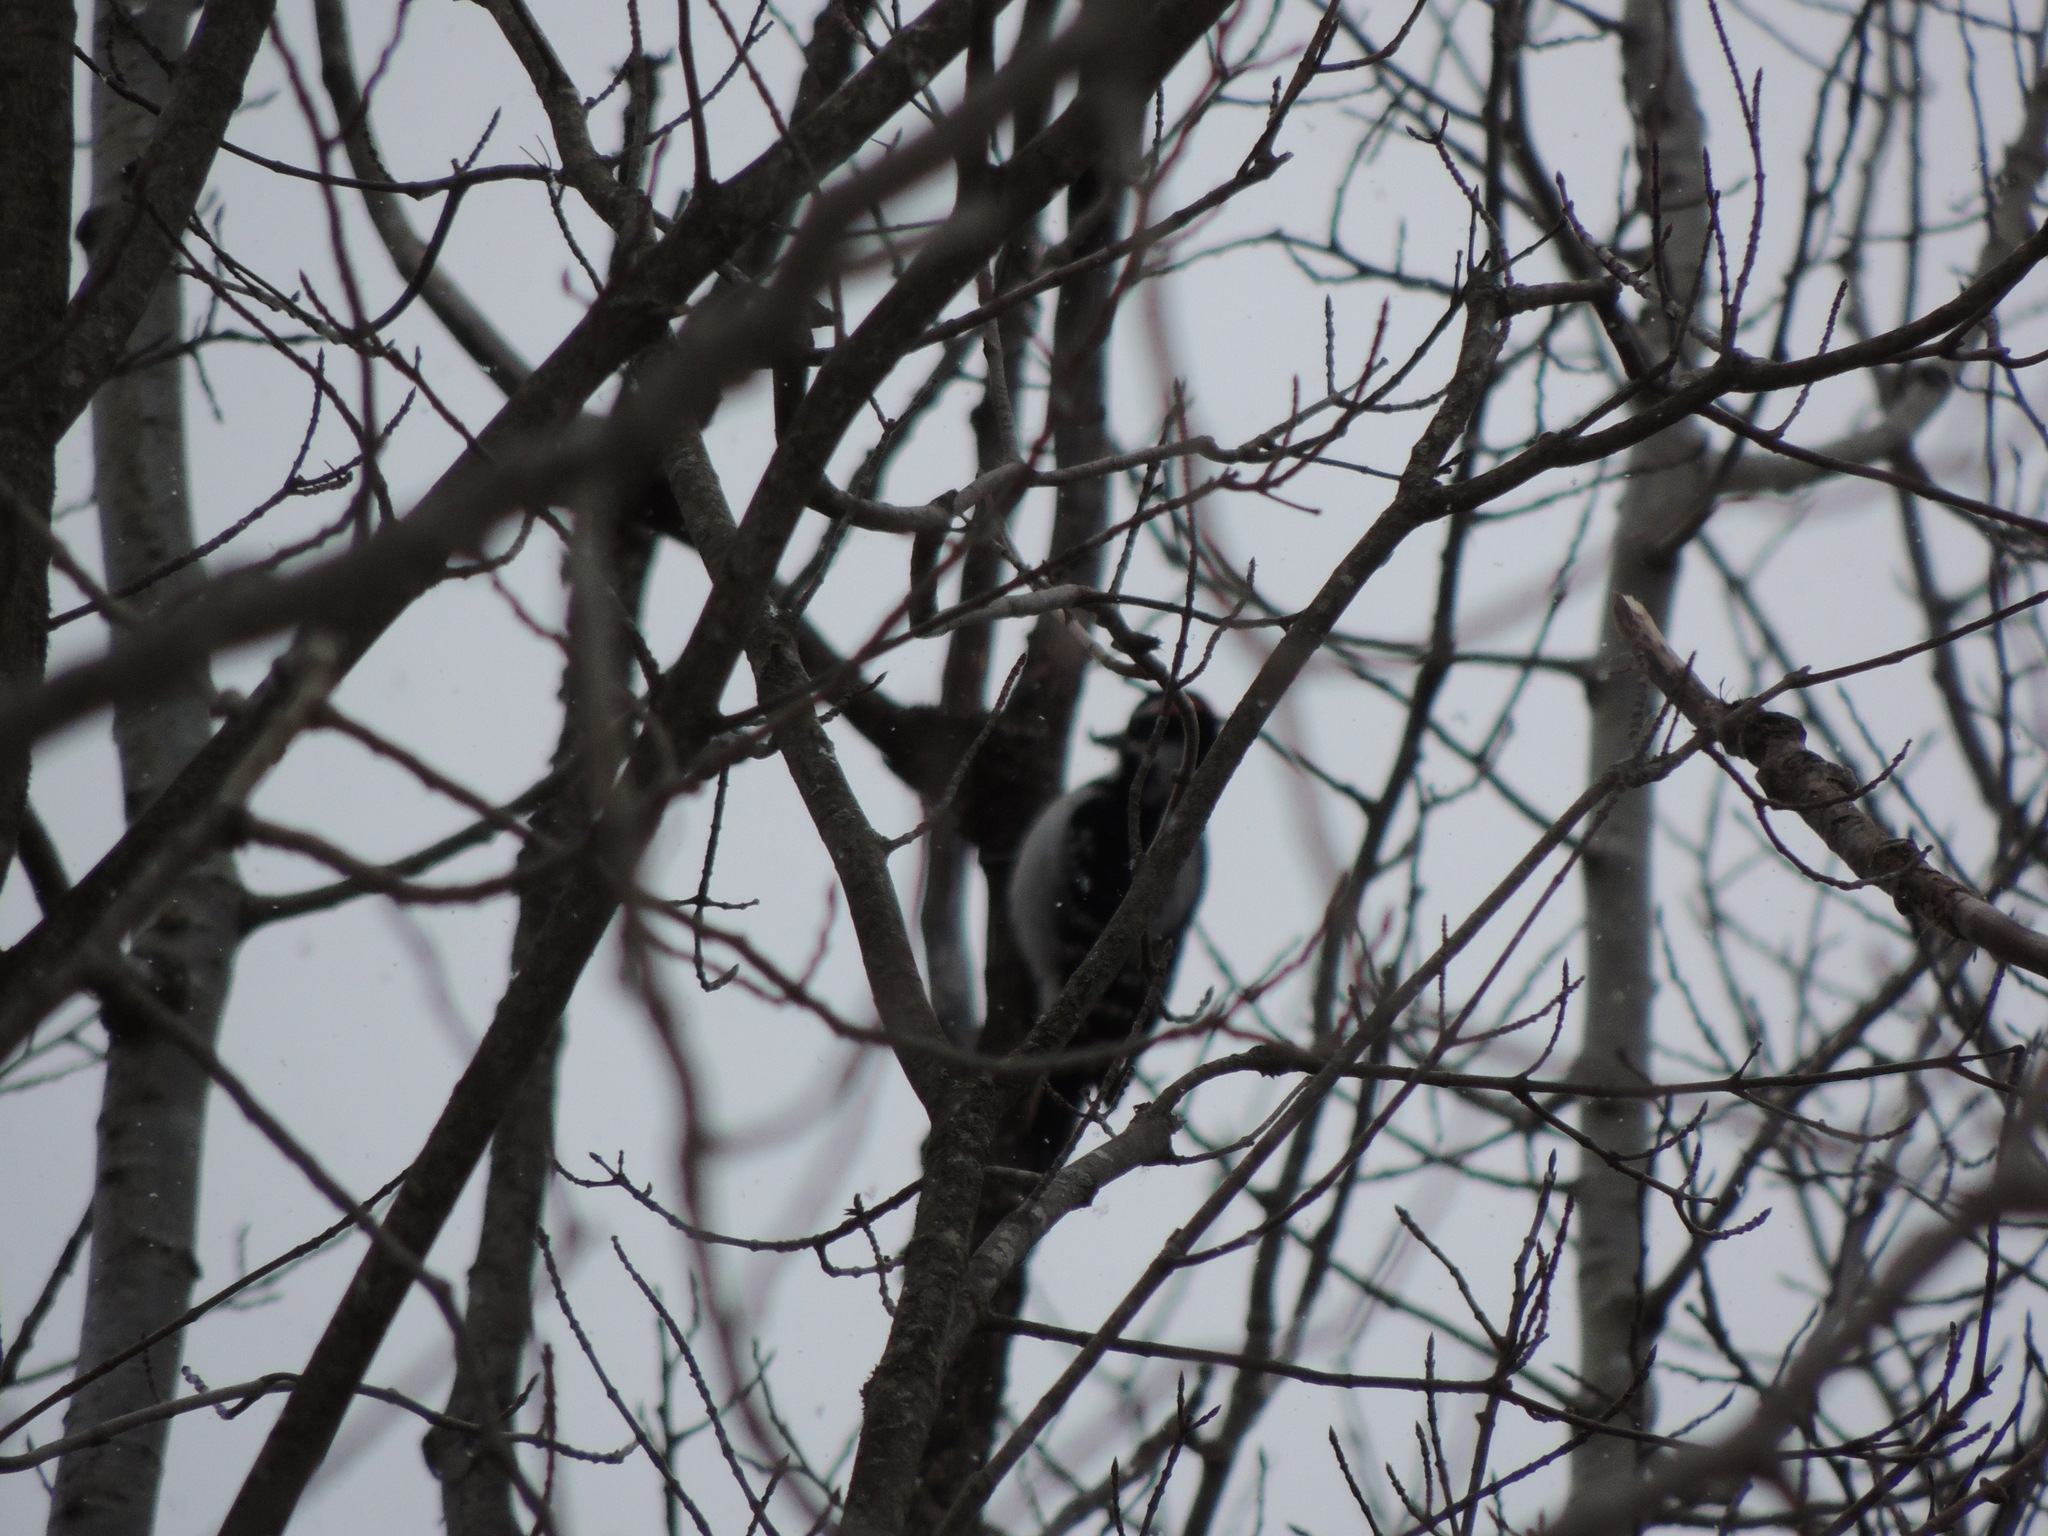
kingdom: Animalia
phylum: Chordata
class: Aves
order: Piciformes
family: Picidae
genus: Leuconotopicus
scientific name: Leuconotopicus villosus
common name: Hairy woodpecker
